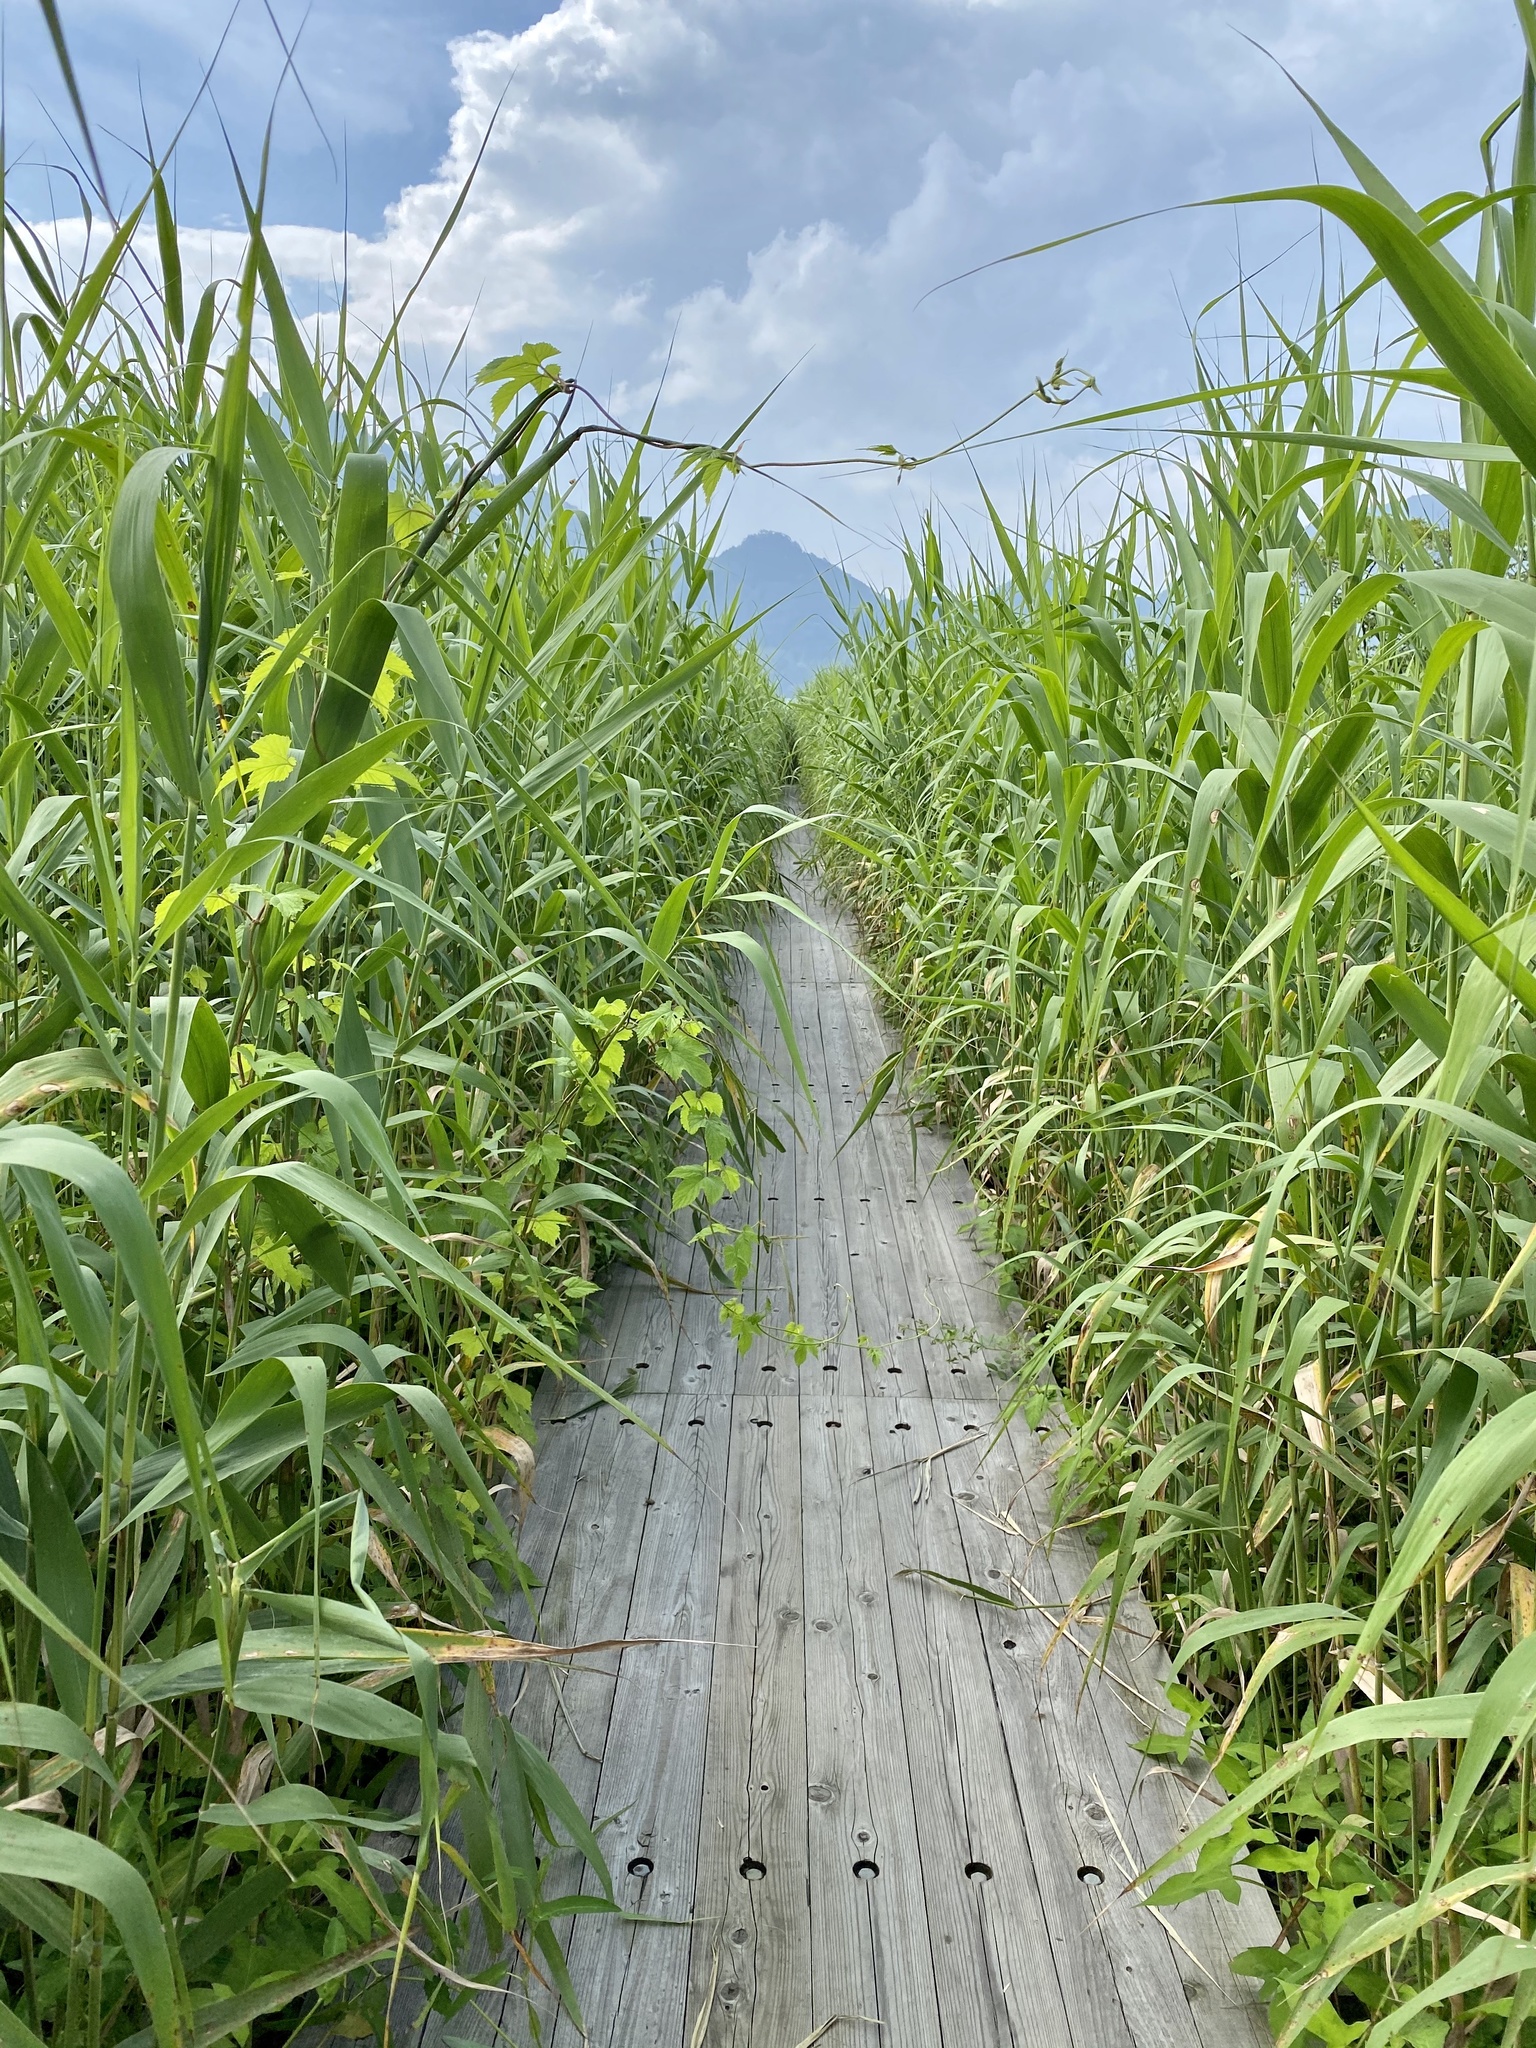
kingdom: Plantae
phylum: Tracheophyta
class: Liliopsida
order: Poales
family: Poaceae
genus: Phragmites
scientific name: Phragmites australis
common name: Common reed
